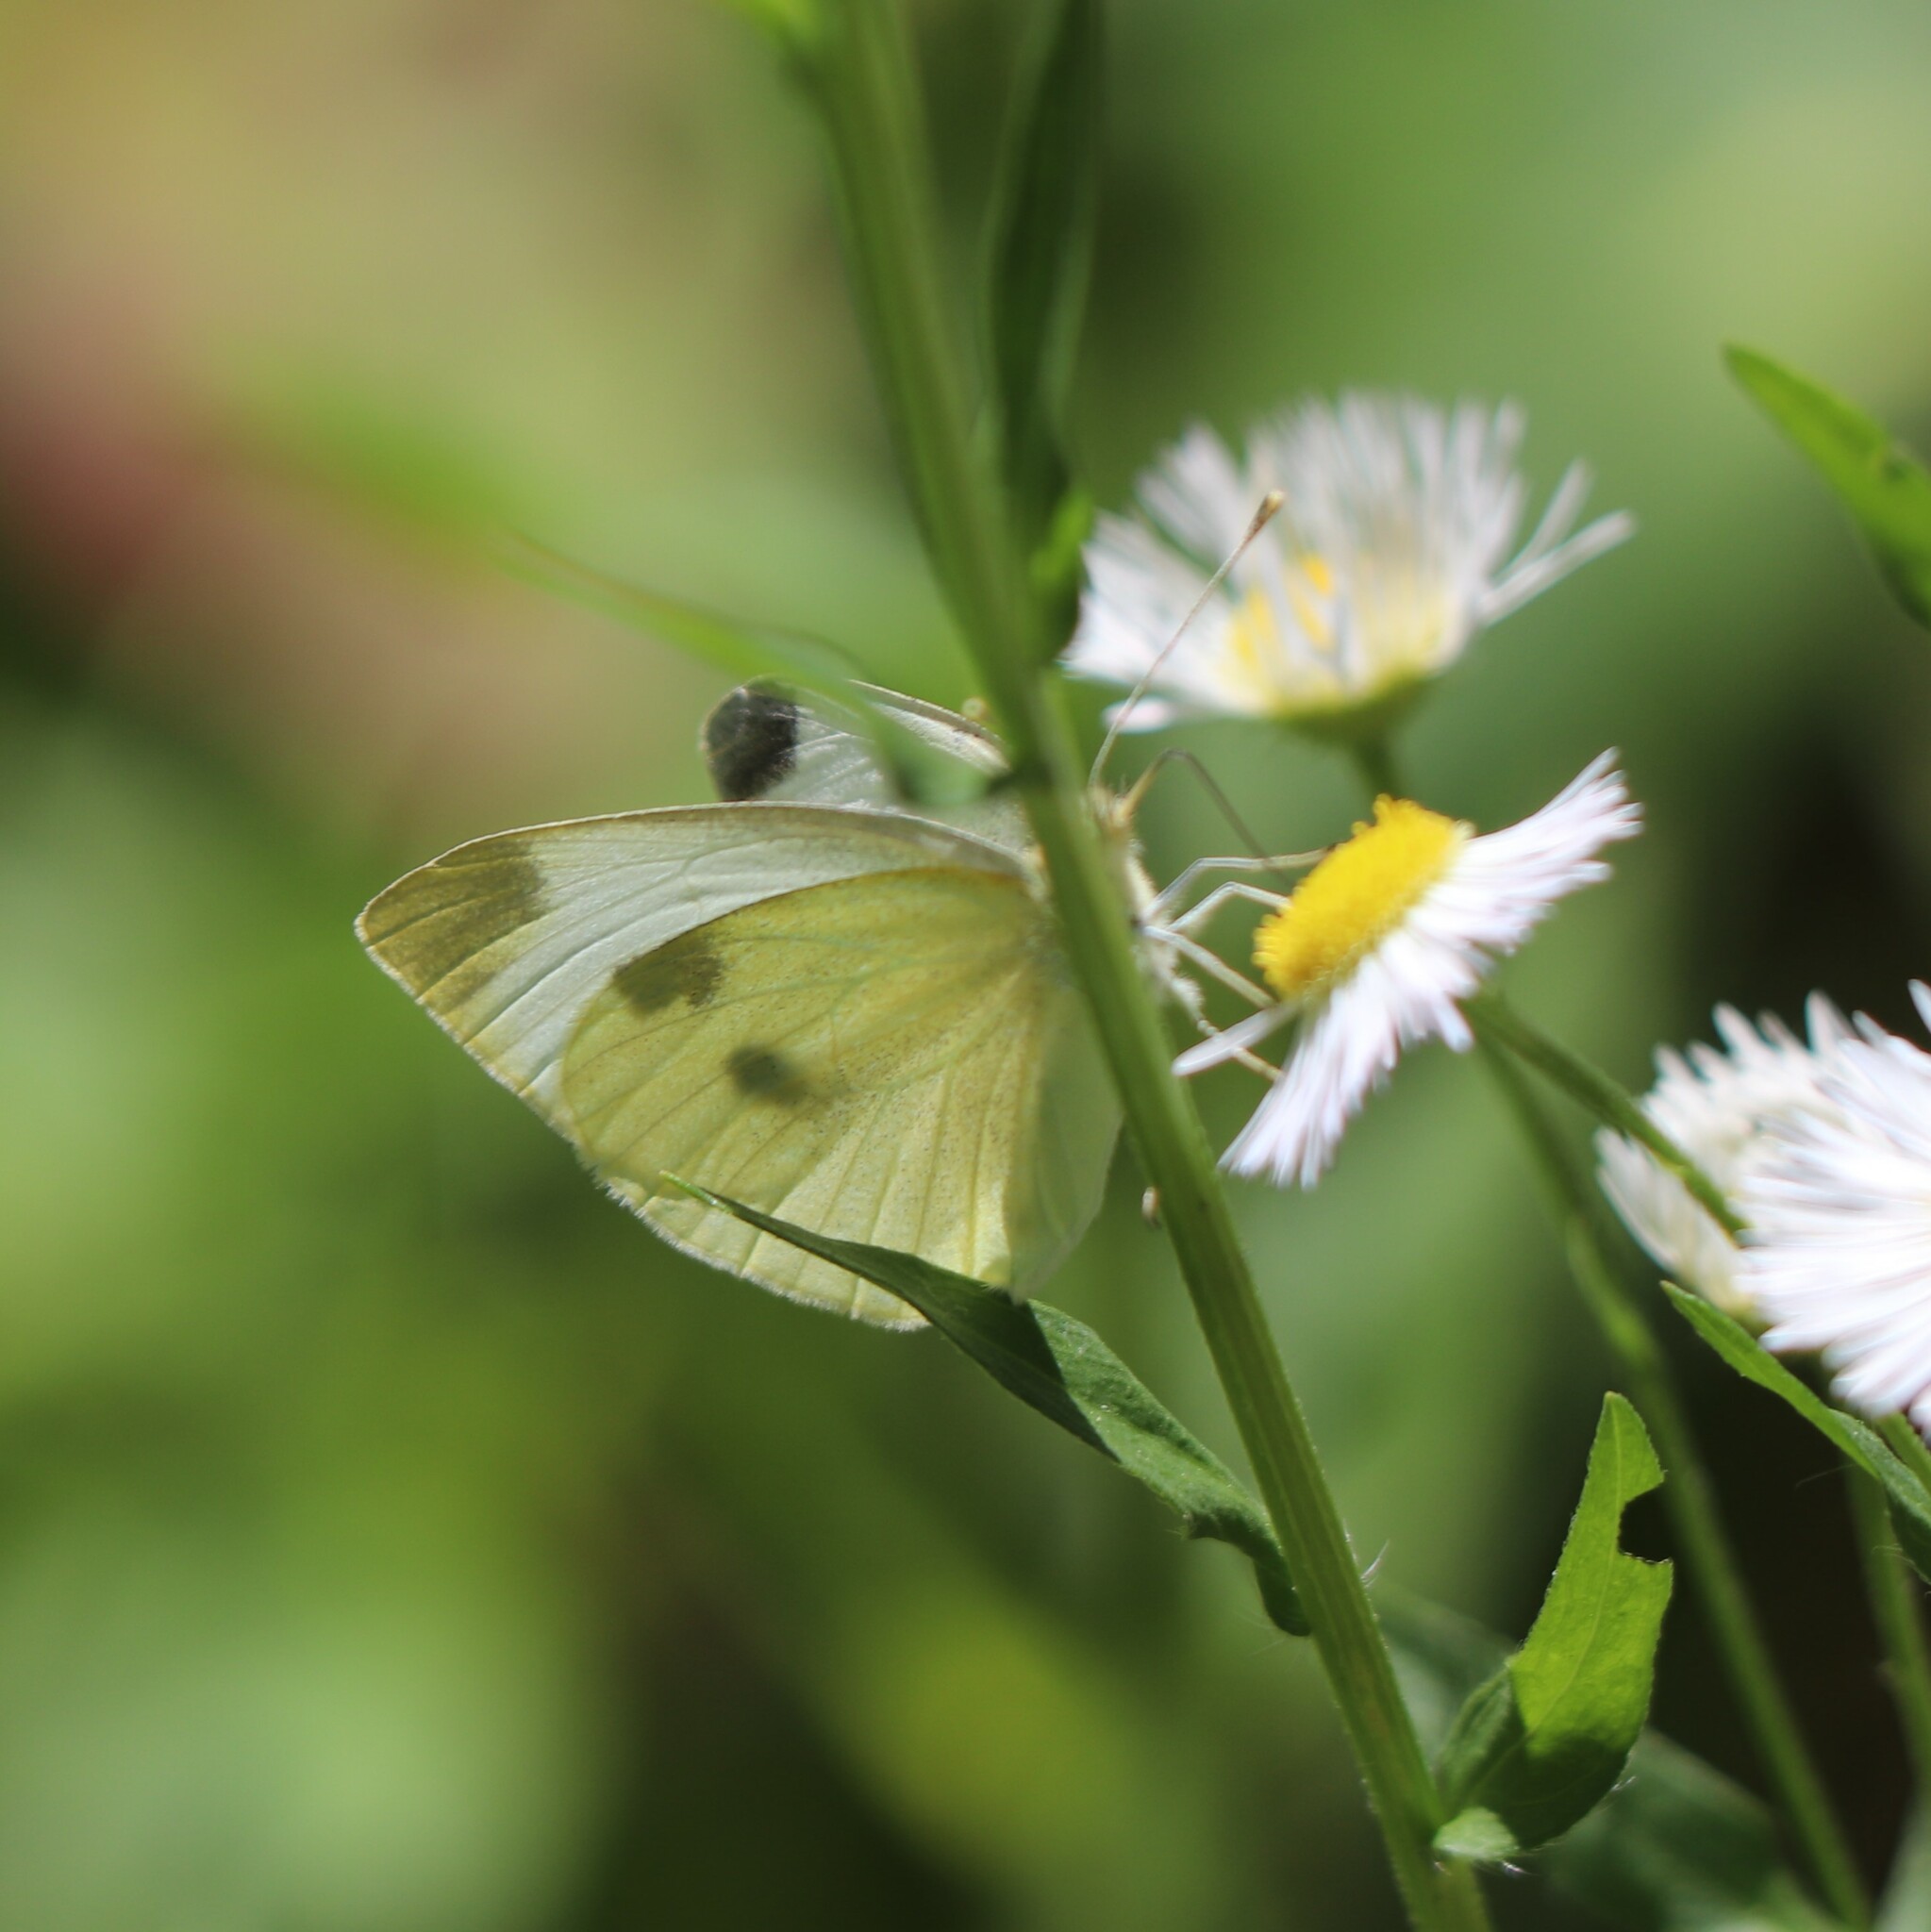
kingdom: Animalia
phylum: Arthropoda
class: Insecta
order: Lepidoptera
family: Pieridae
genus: Pieris
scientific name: Pieris rapae
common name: Small white
